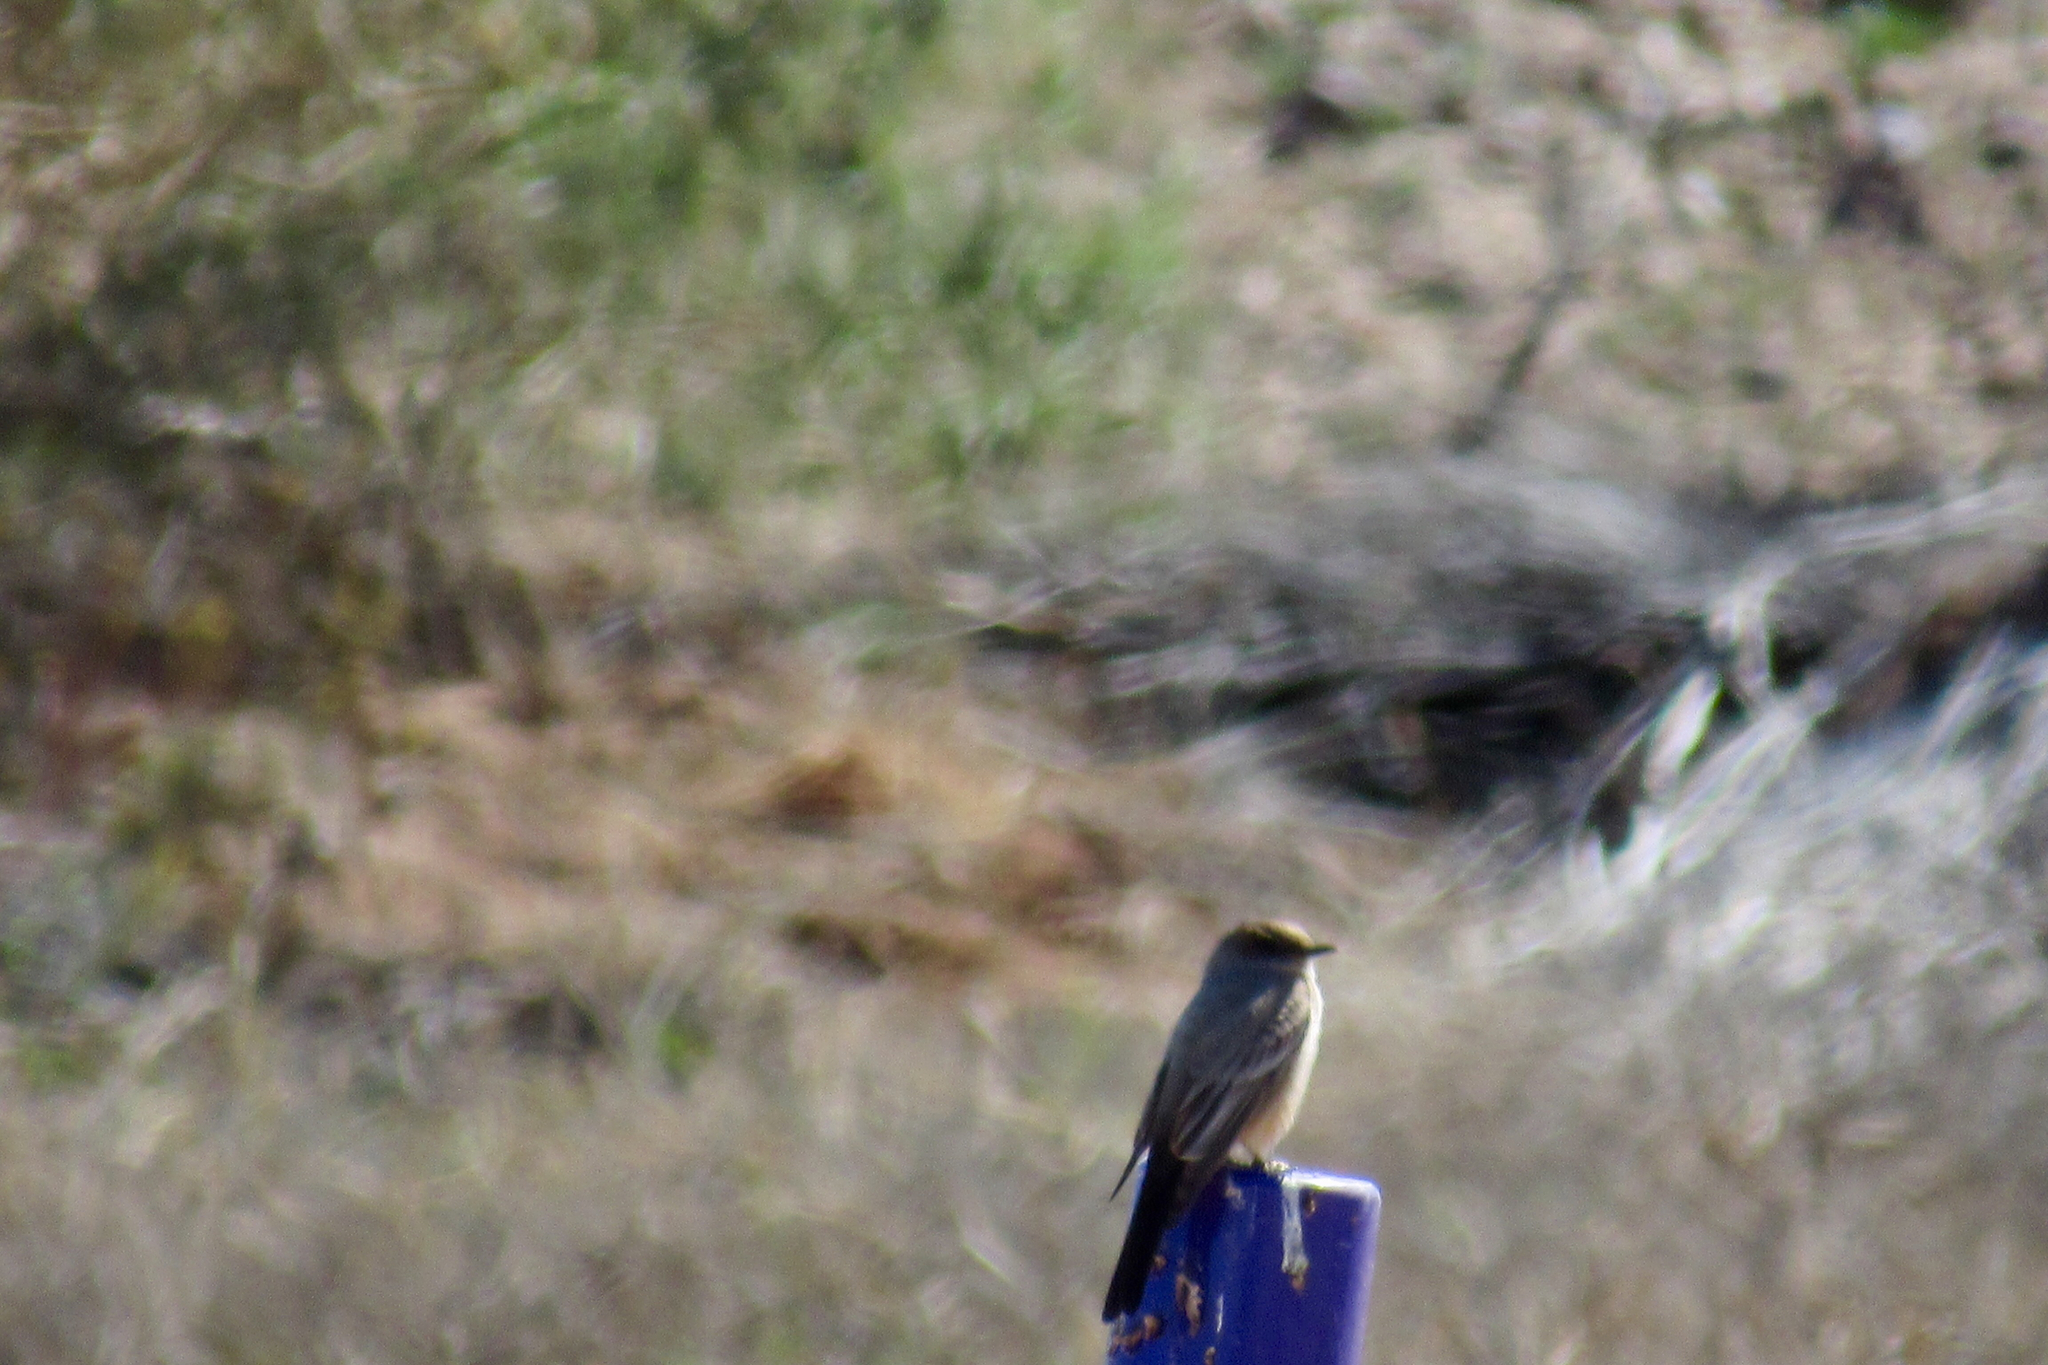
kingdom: Animalia
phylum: Chordata
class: Aves
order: Passeriformes
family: Tyrannidae
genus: Sayornis
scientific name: Sayornis saya
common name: Say's phoebe
